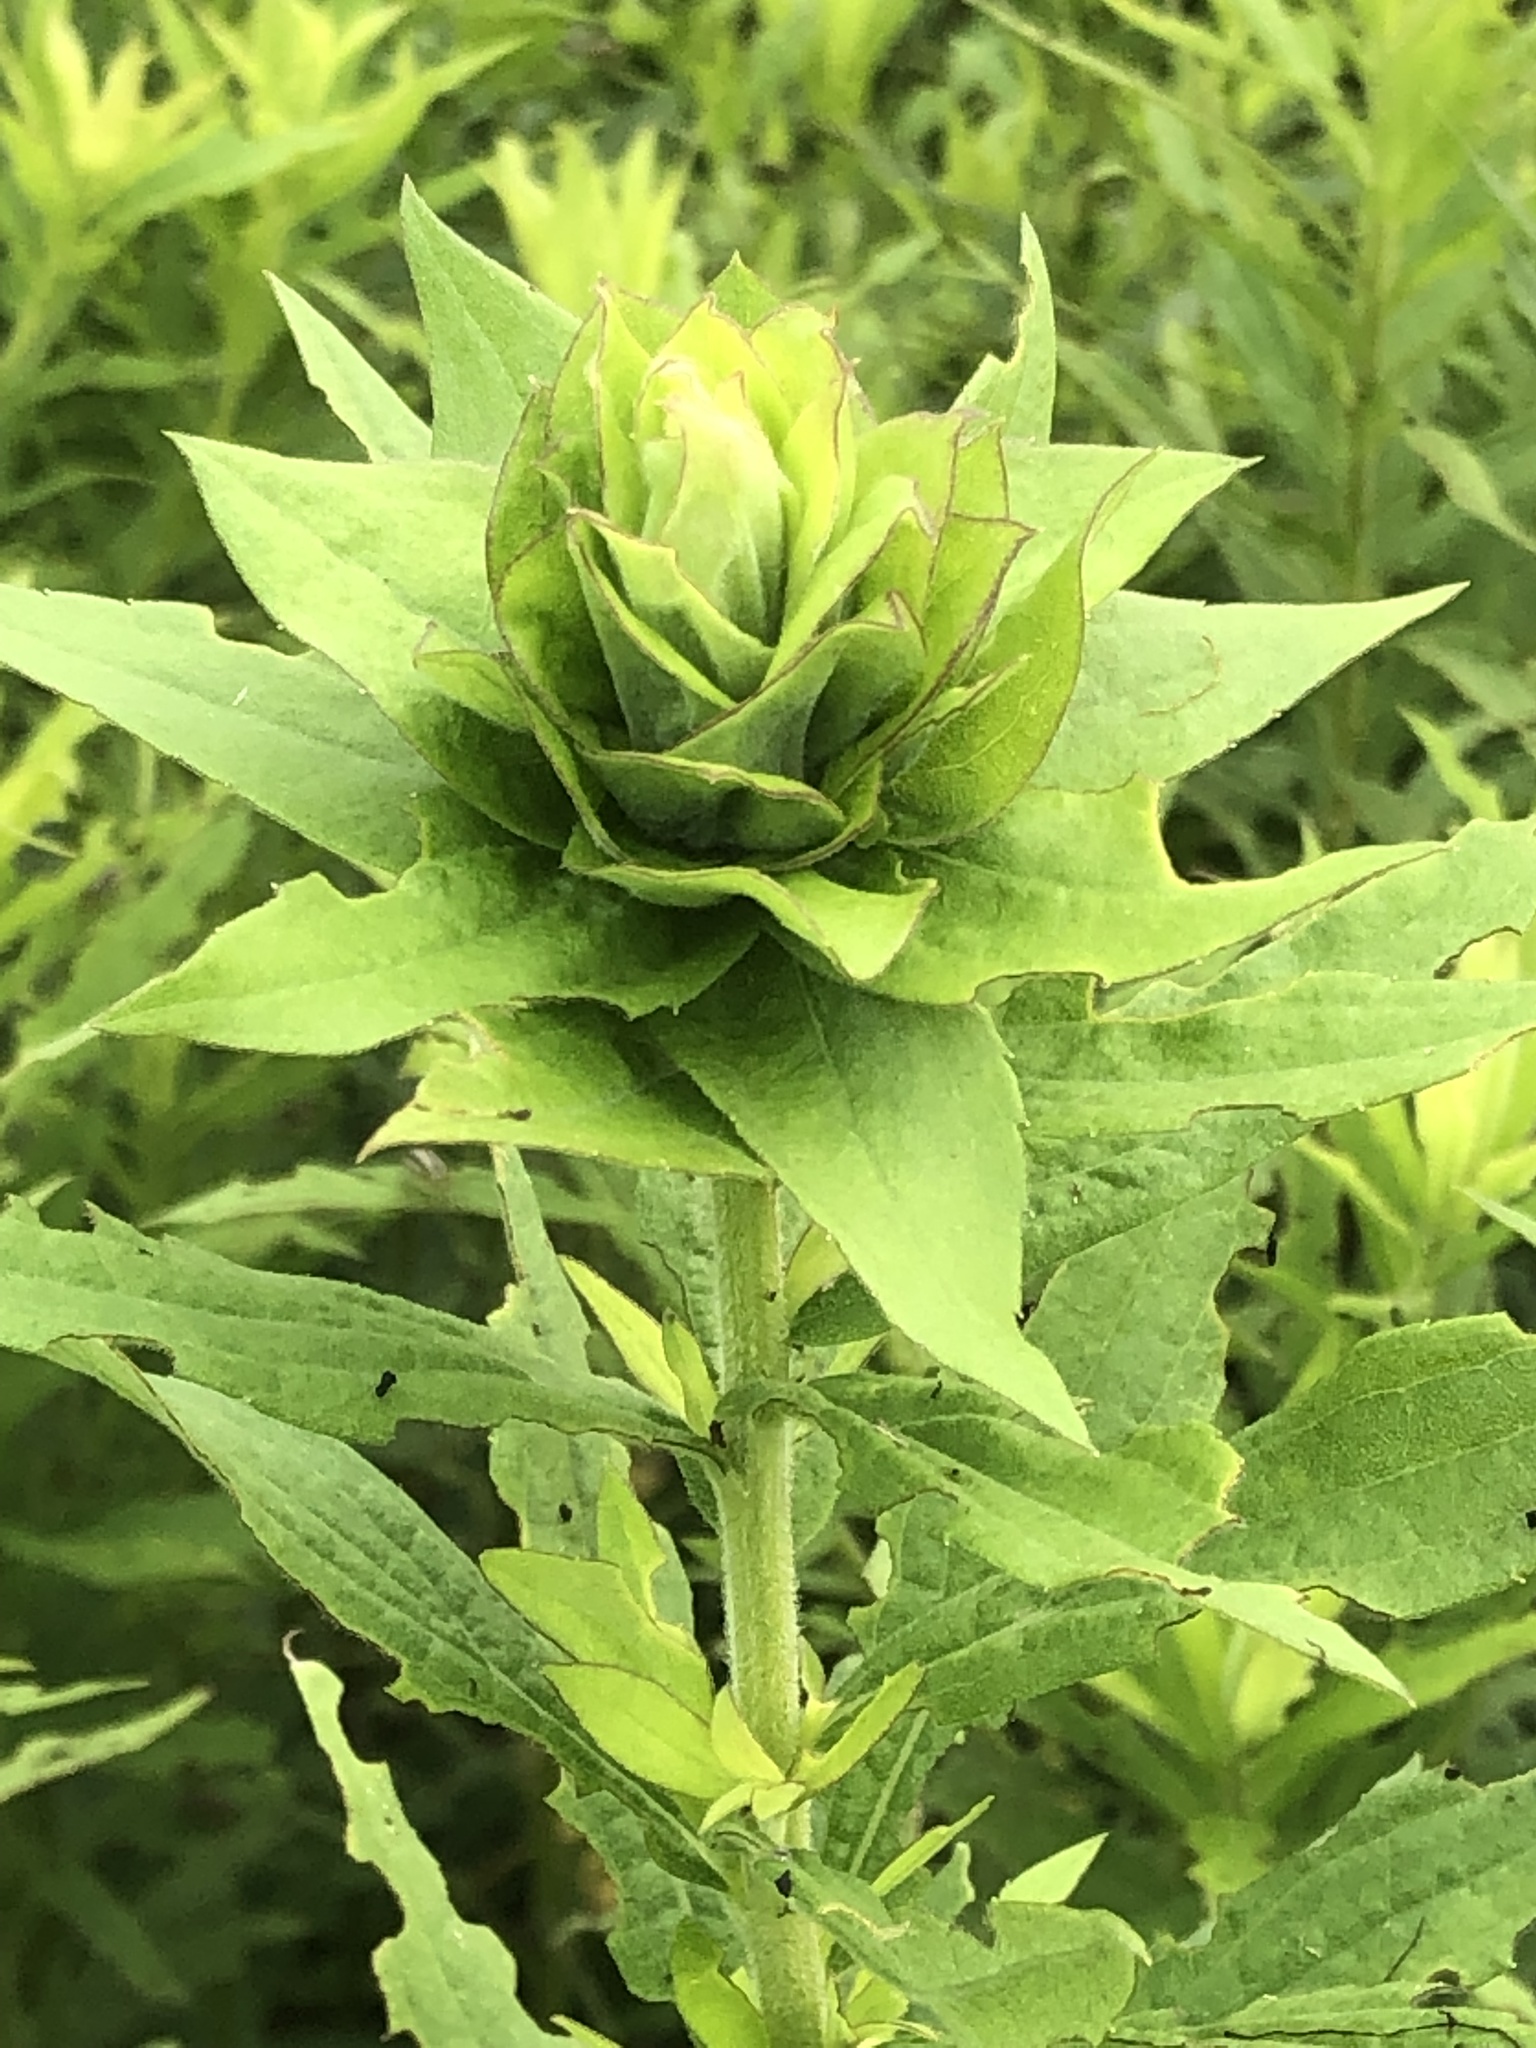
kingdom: Animalia
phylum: Arthropoda
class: Insecta
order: Diptera
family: Cecidomyiidae
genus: Rhopalomyia
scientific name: Rhopalomyia solidaginis
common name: Goldenrod bunch gall midge
